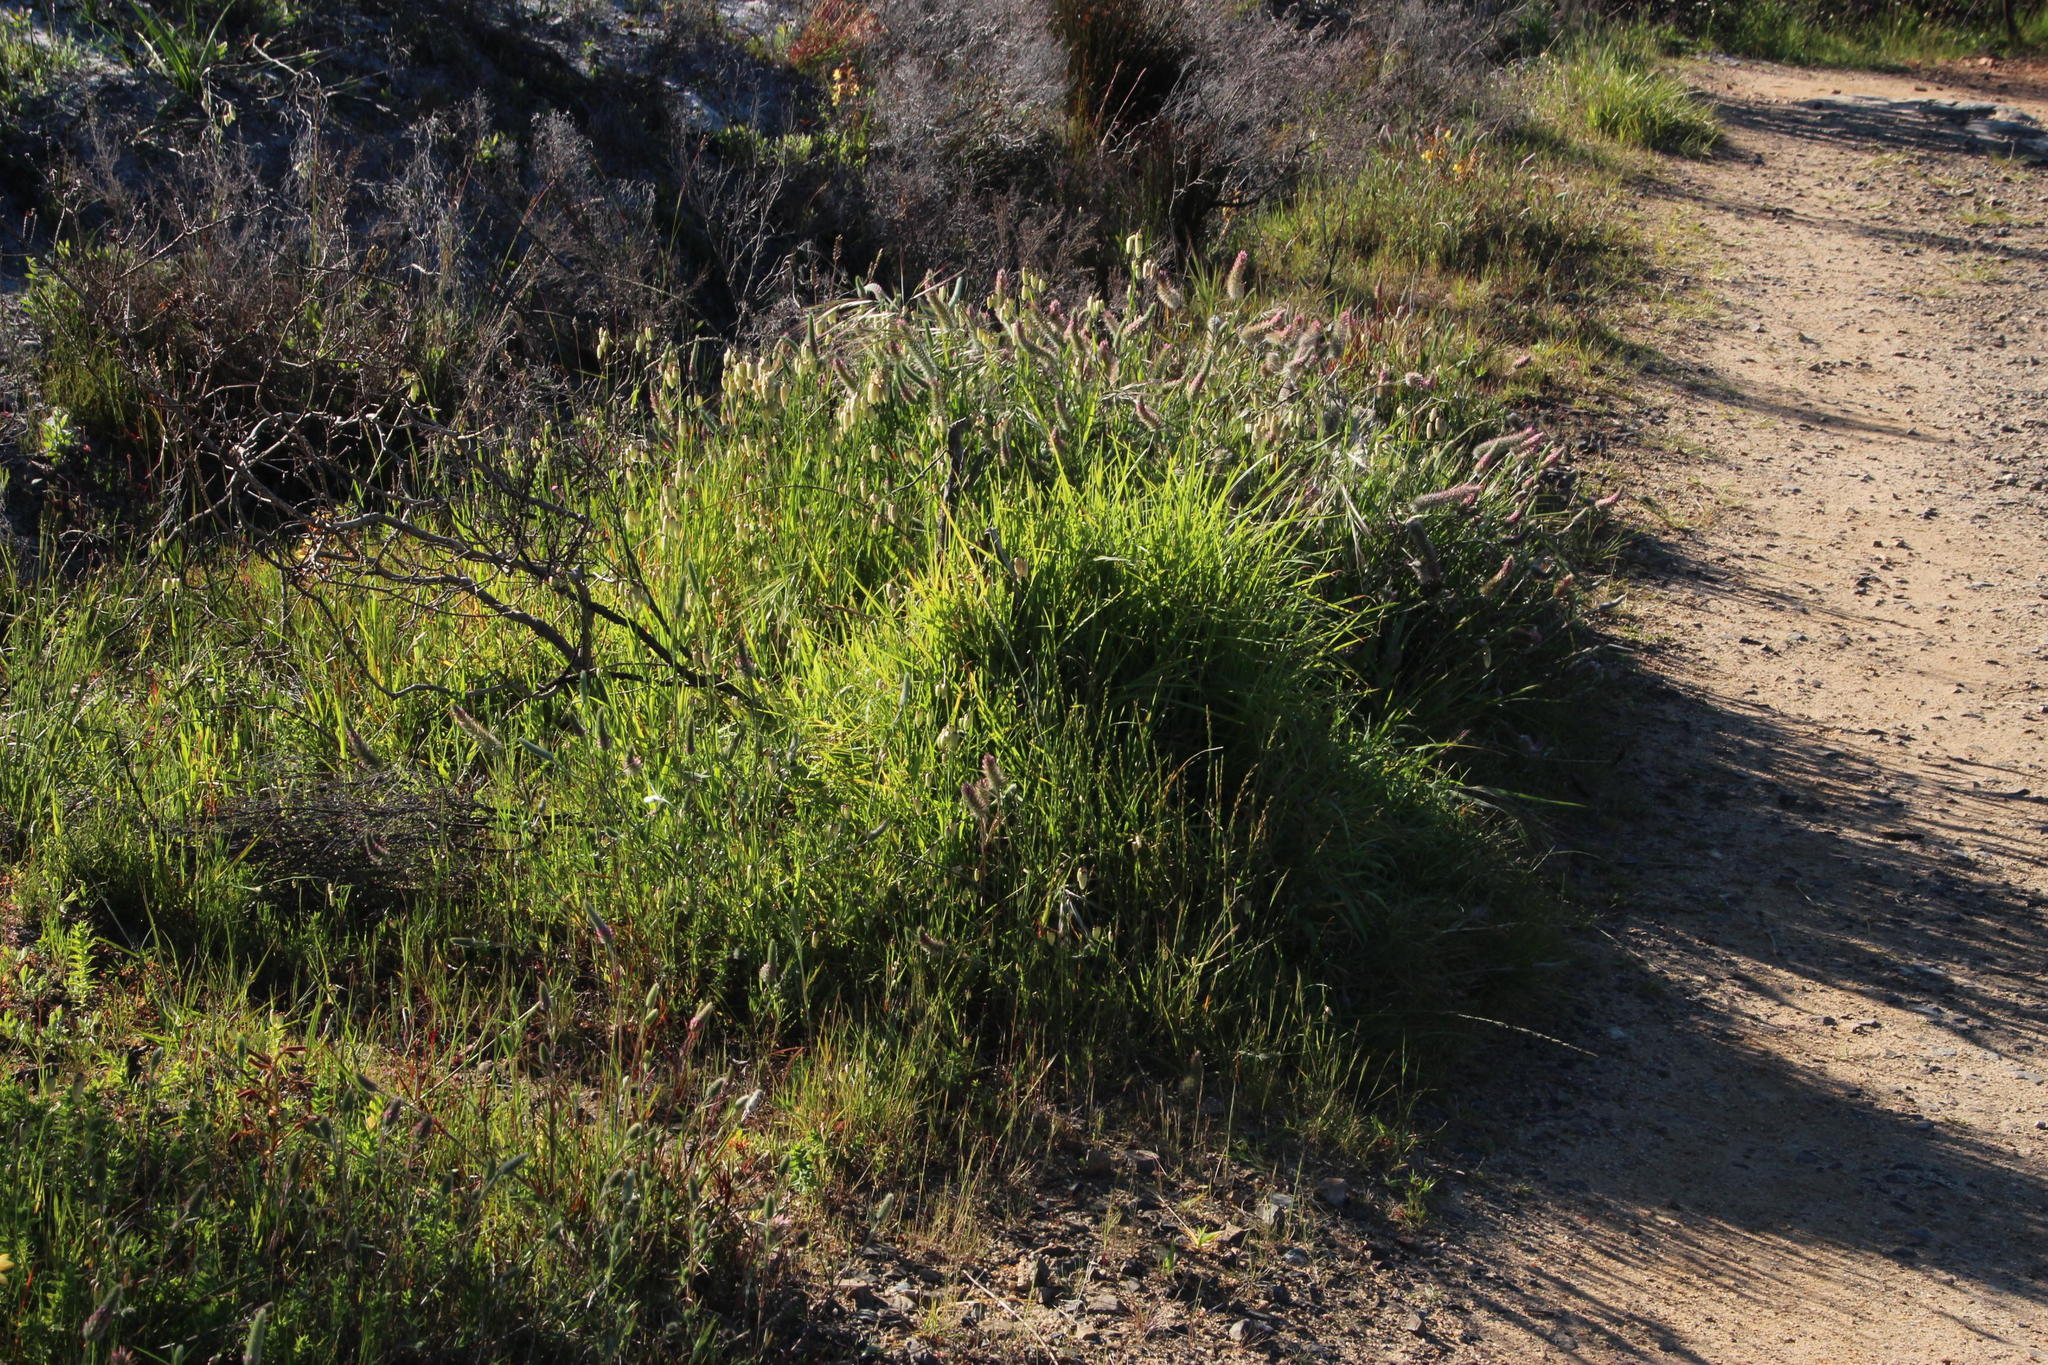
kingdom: Plantae
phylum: Tracheophyta
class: Liliopsida
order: Poales
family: Poaceae
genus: Cenchrus
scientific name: Cenchrus clandestinus
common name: Kikuyugrass
